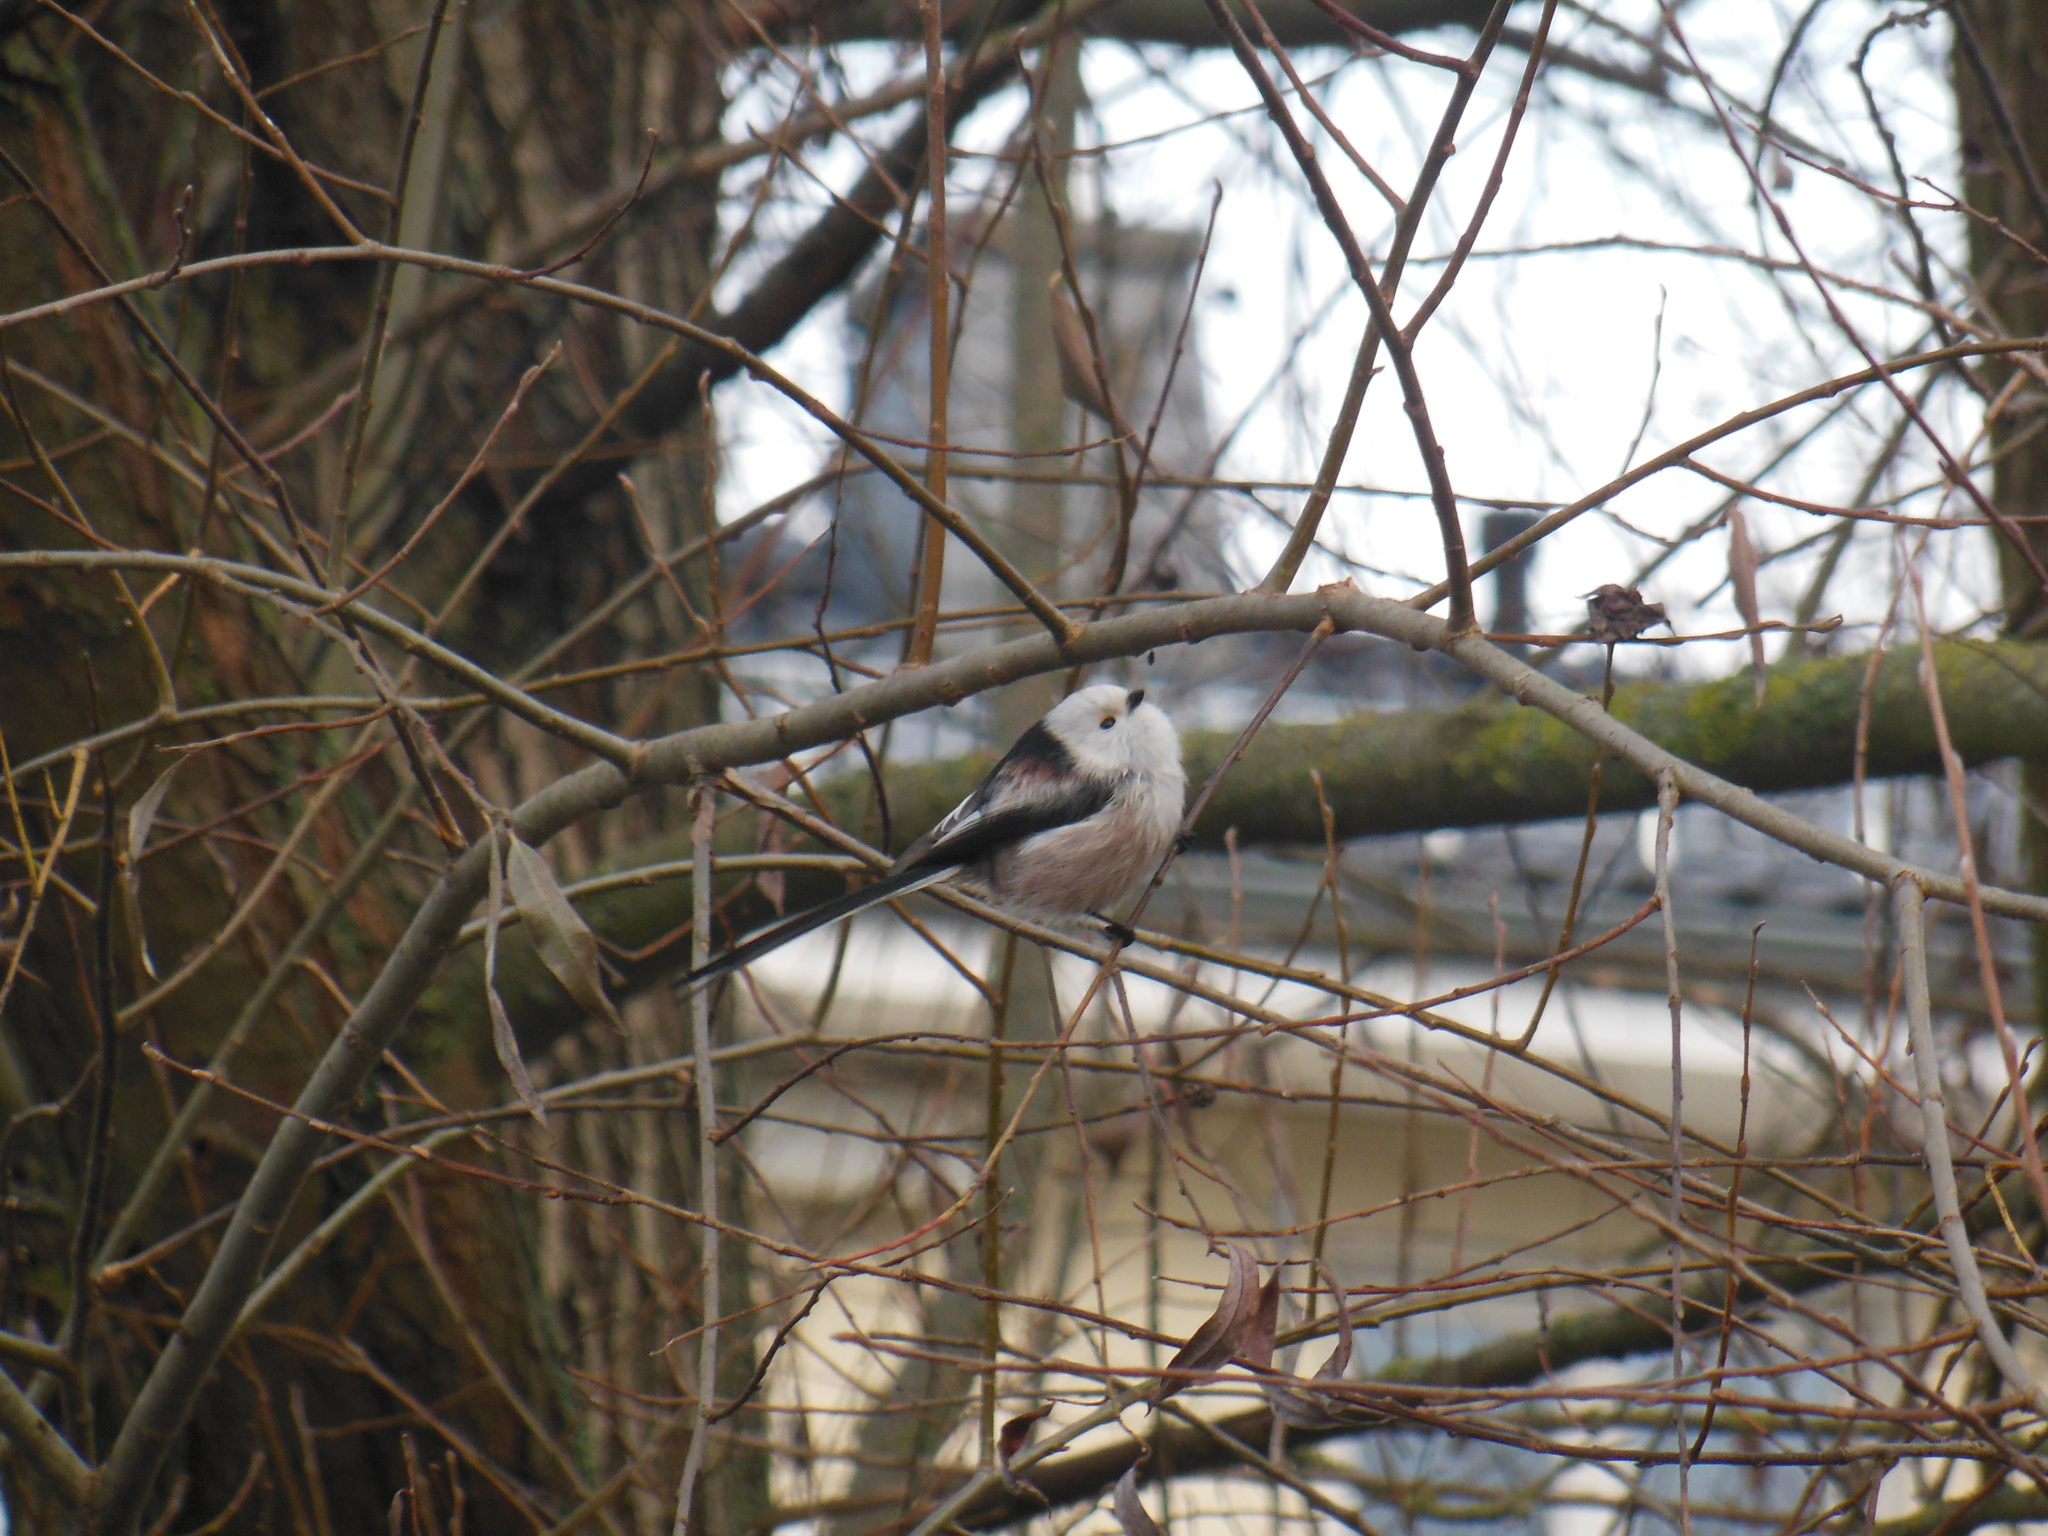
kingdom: Animalia
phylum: Chordata
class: Aves
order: Passeriformes
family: Aegithalidae
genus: Aegithalos
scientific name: Aegithalos caudatus
